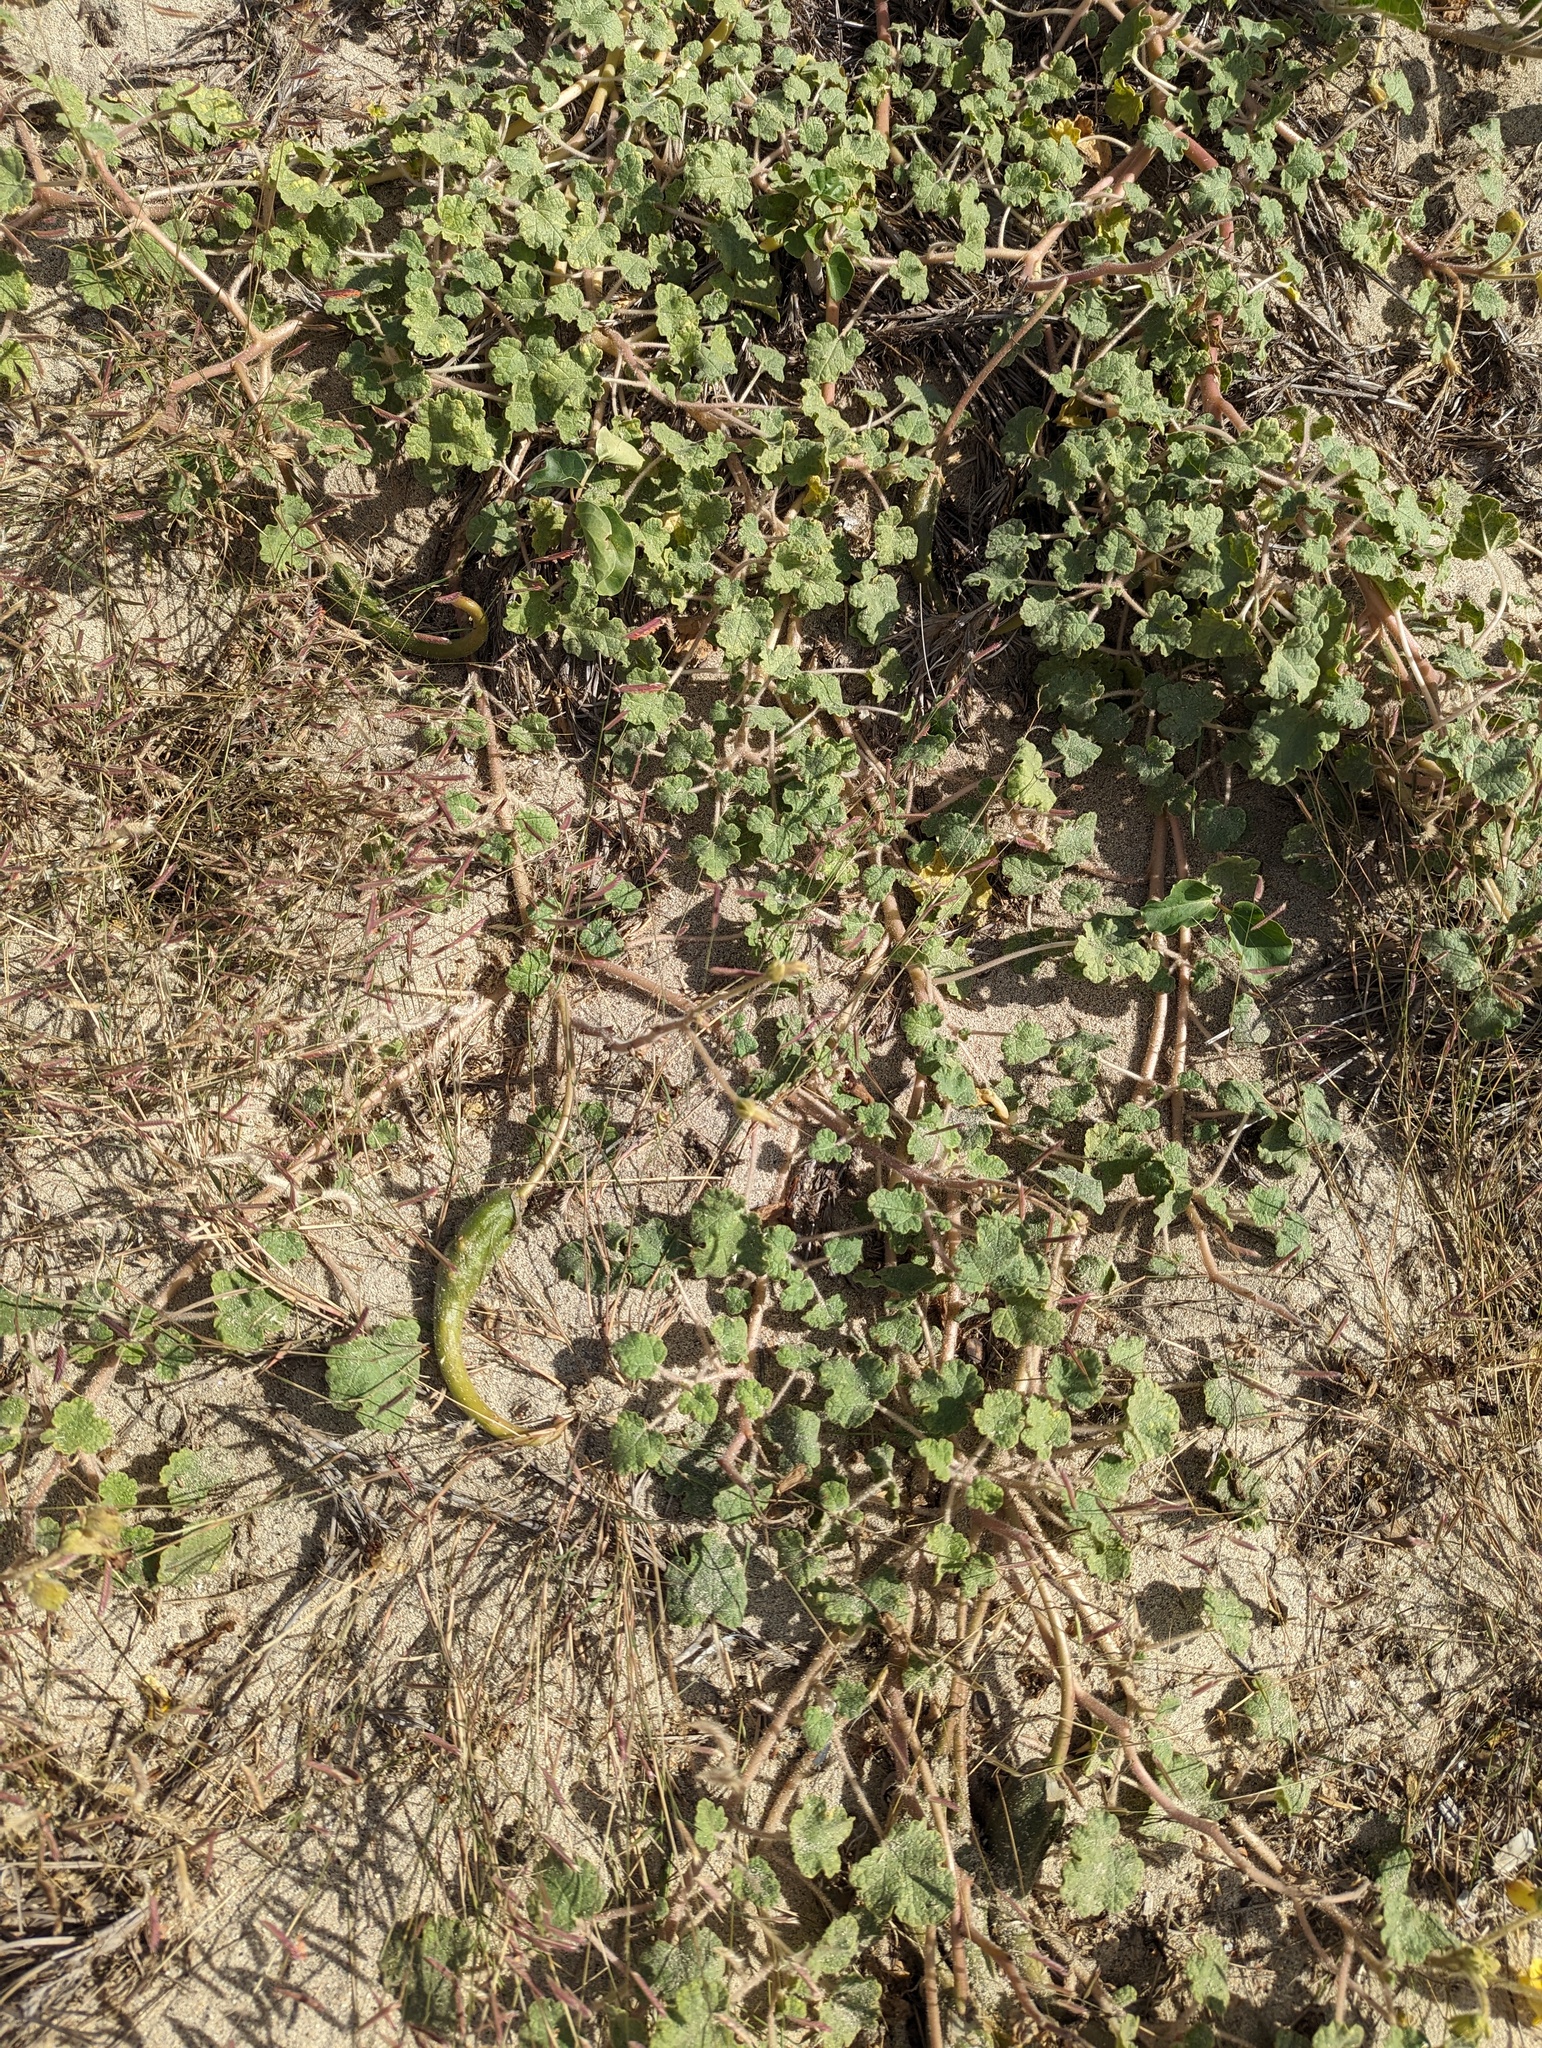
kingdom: Plantae
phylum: Tracheophyta
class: Magnoliopsida
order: Lamiales
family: Martyniaceae
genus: Proboscidea
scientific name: Proboscidea althaeifolia
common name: Desert unicorn-plant
